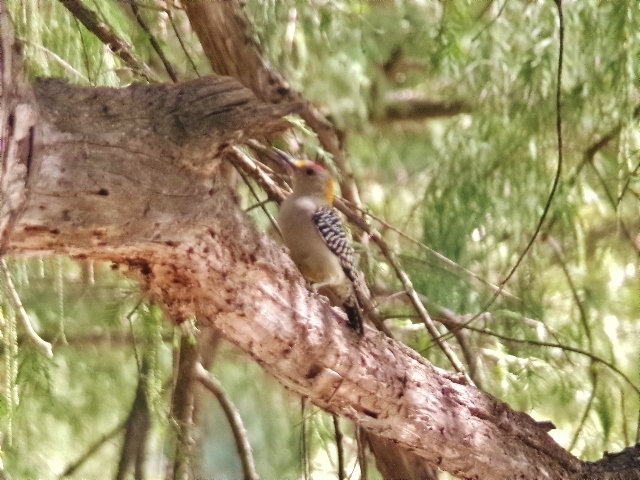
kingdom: Animalia
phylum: Chordata
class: Aves
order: Piciformes
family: Picidae
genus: Melanerpes
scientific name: Melanerpes aurifrons
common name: Golden-fronted woodpecker
